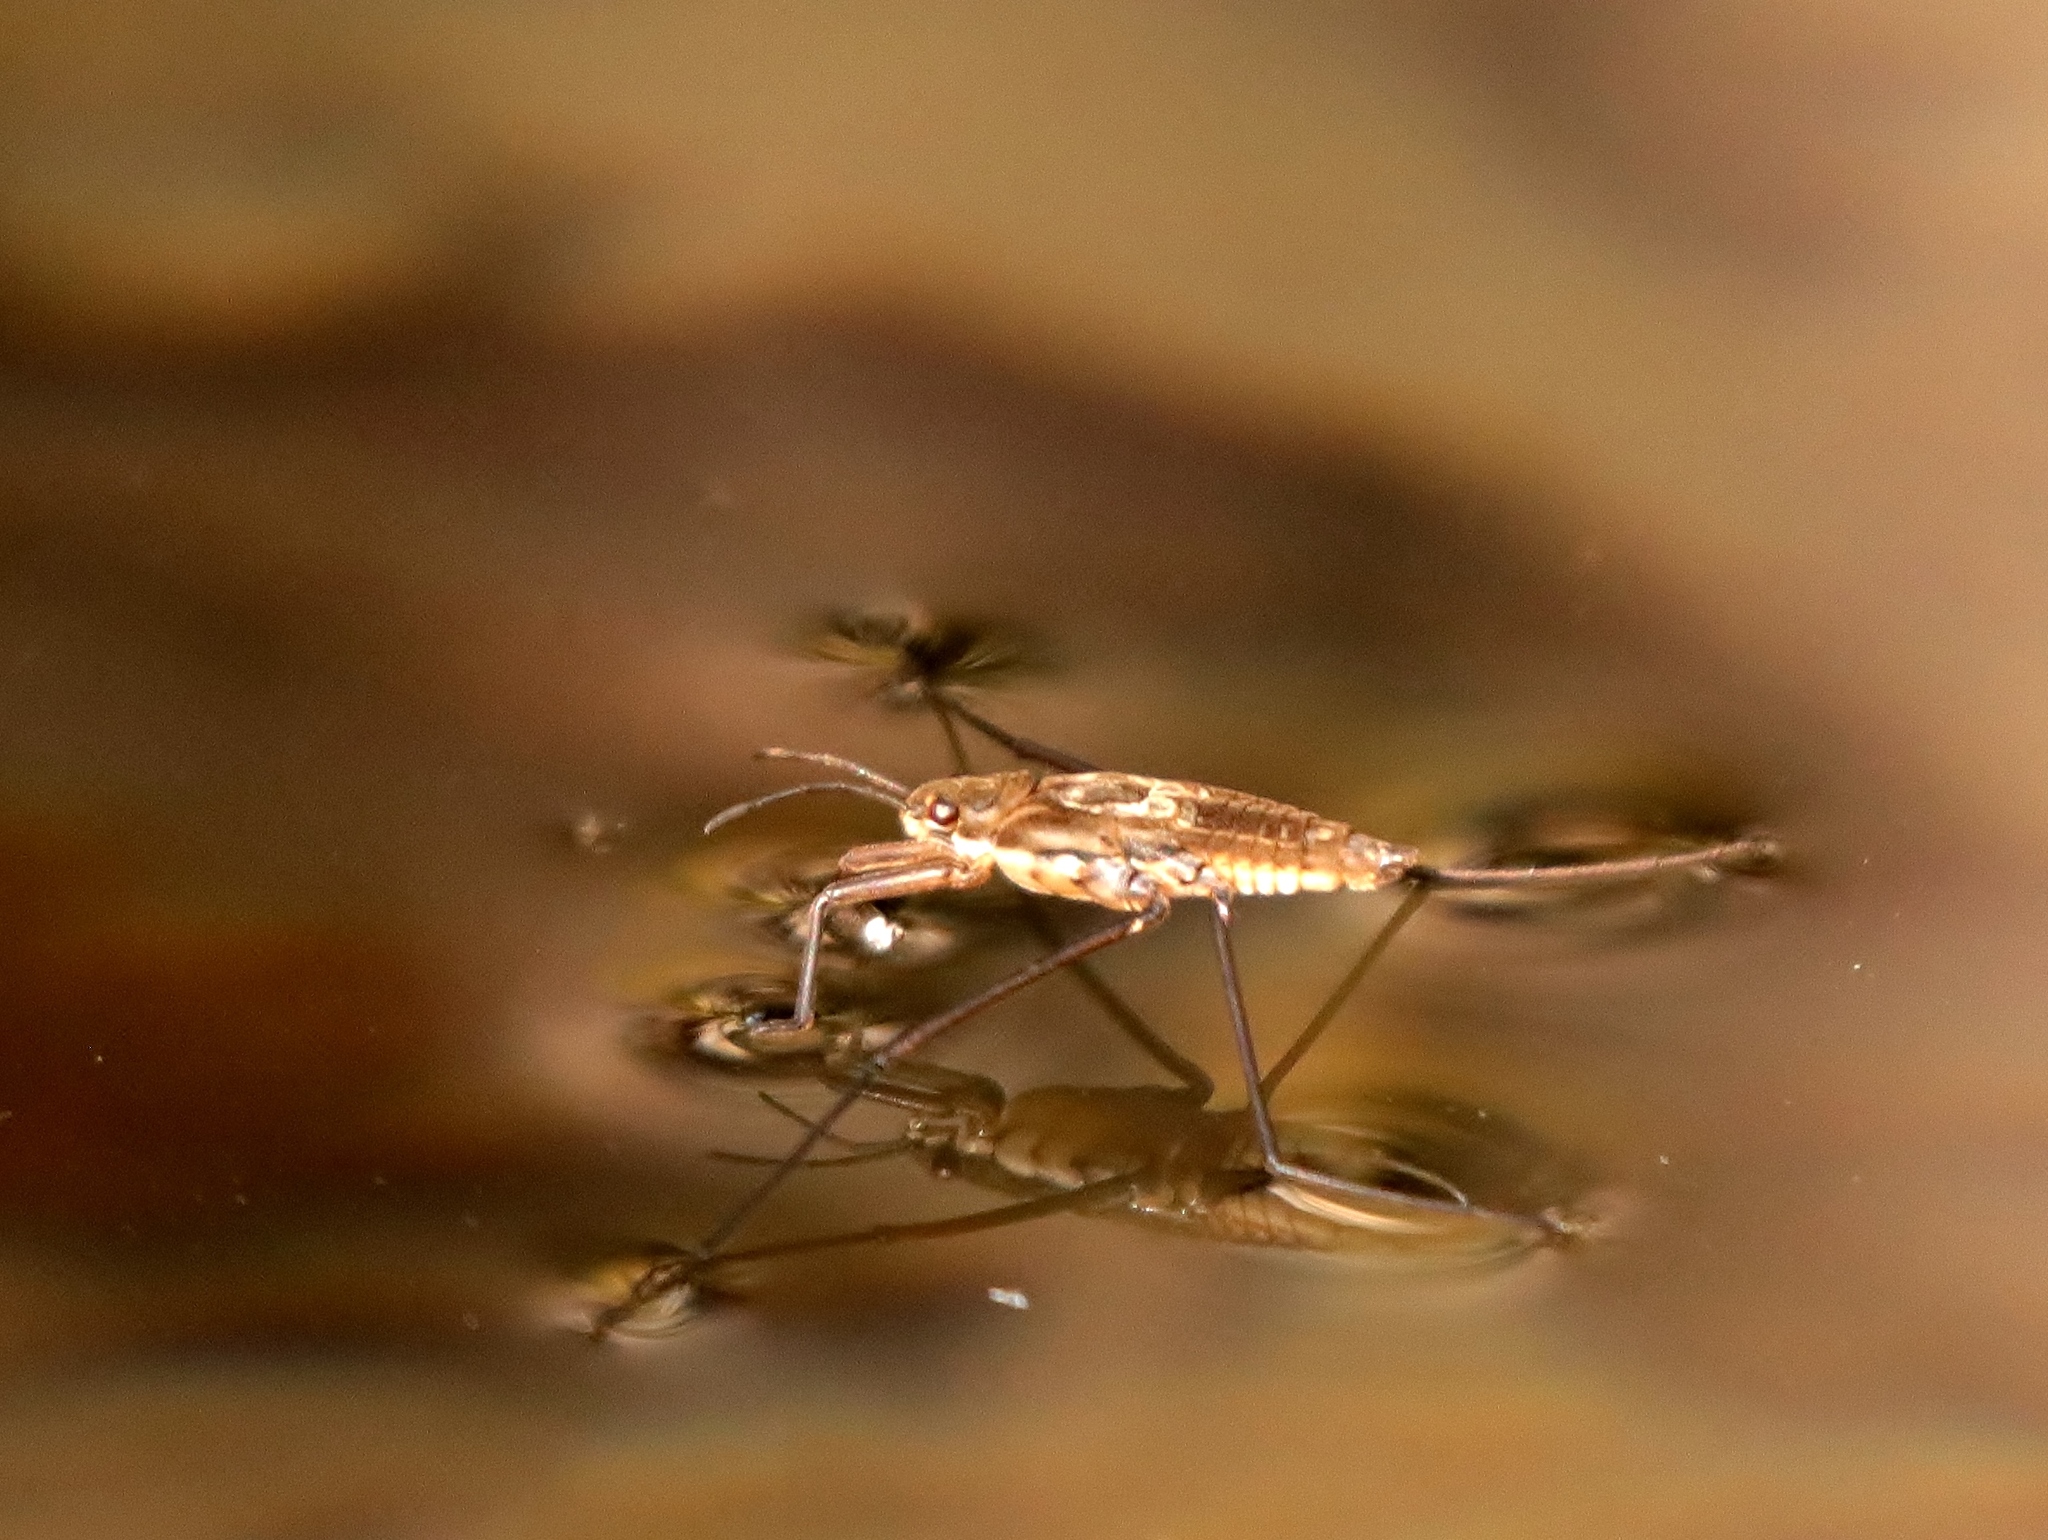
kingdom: Animalia
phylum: Arthropoda
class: Insecta
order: Hemiptera
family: Gerridae
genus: Aquarius
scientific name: Aquarius remigis
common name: Common water strider
